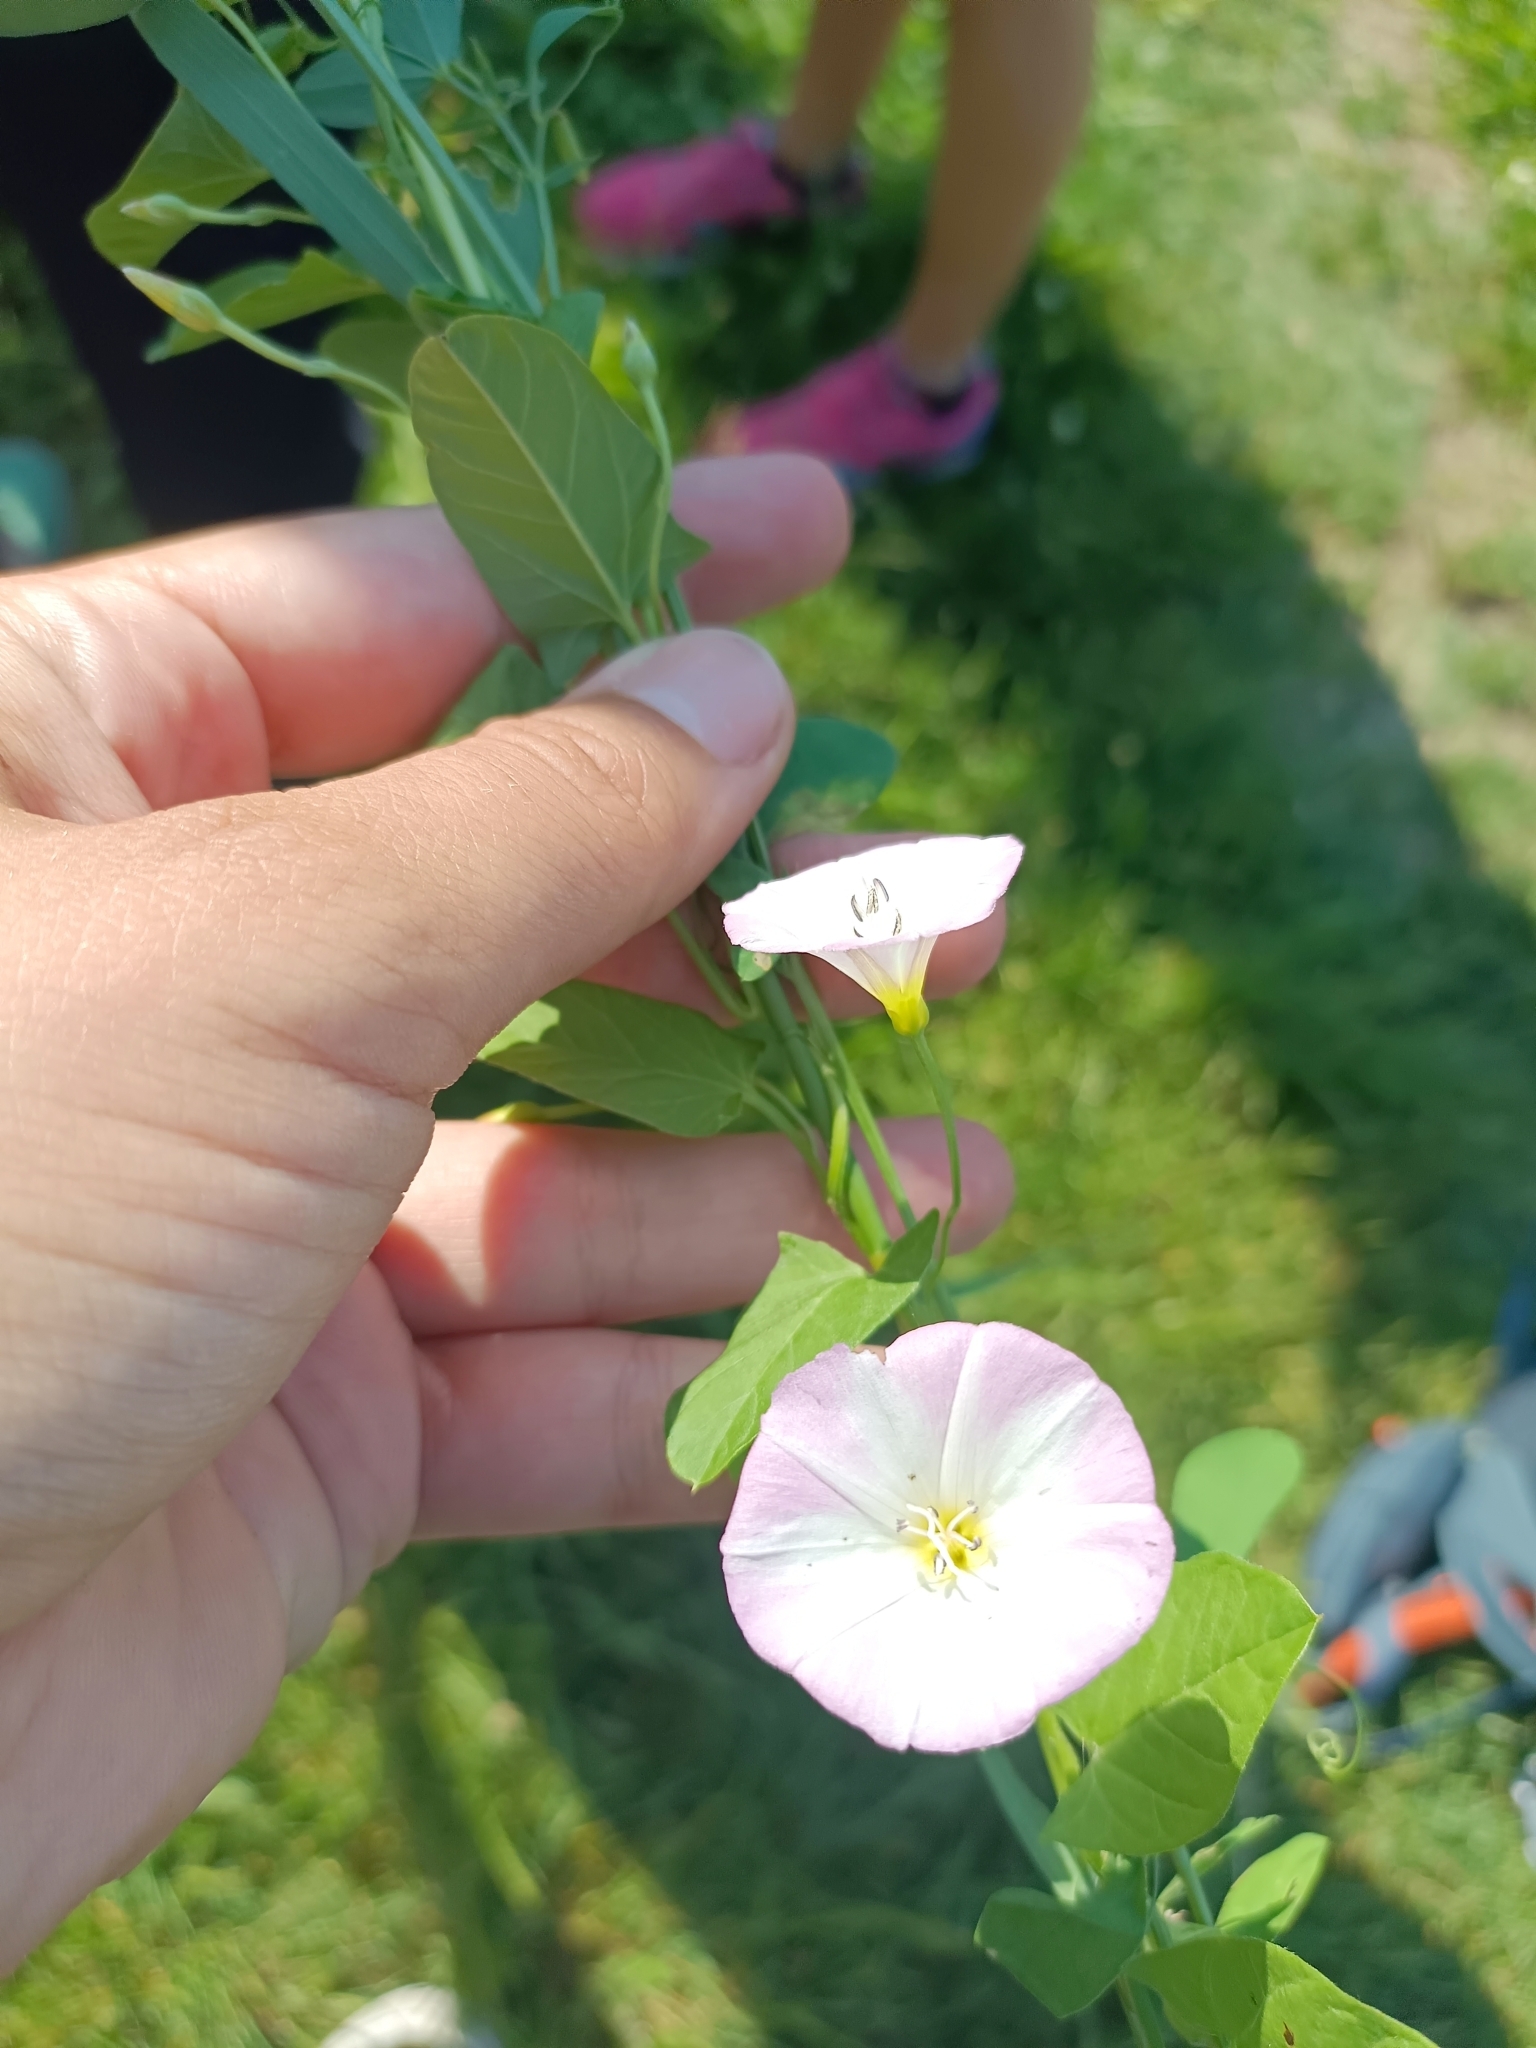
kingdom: Plantae
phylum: Tracheophyta
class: Magnoliopsida
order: Solanales
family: Convolvulaceae
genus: Convolvulus
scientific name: Convolvulus arvensis
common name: Field bindweed
